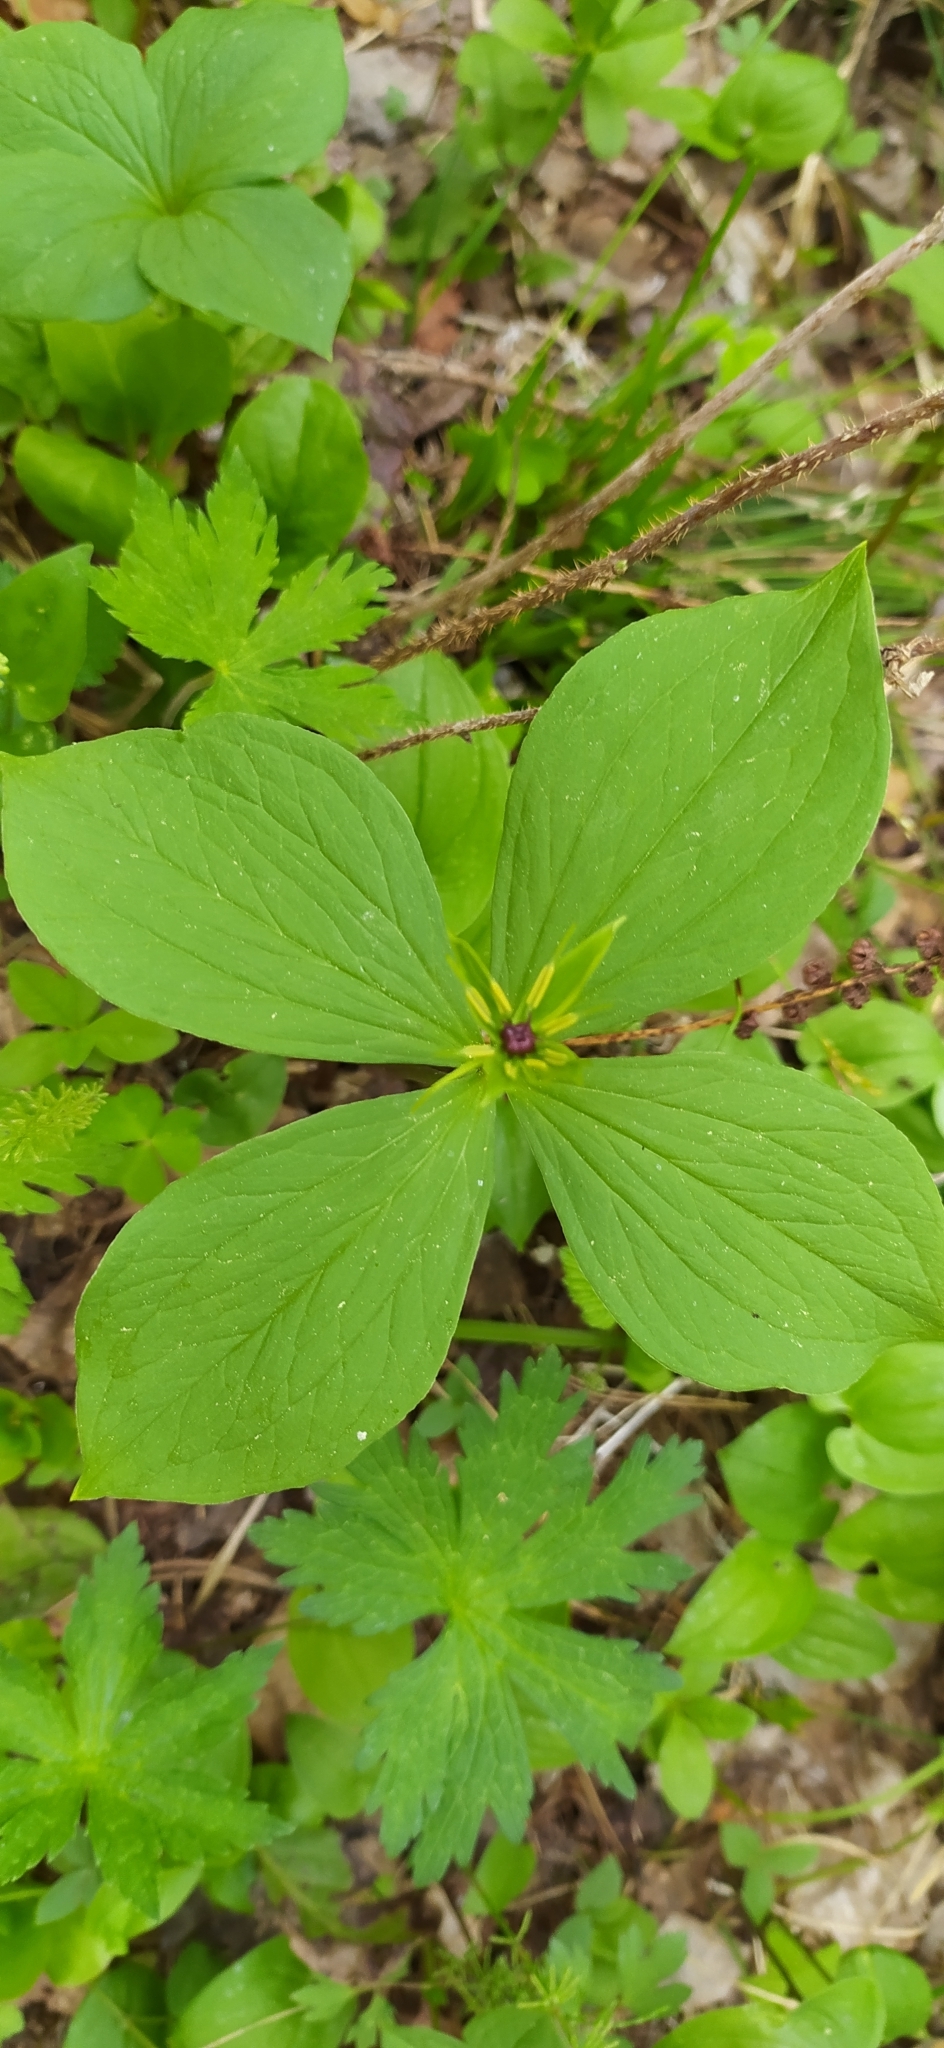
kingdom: Plantae
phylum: Tracheophyta
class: Liliopsida
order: Liliales
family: Melanthiaceae
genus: Paris
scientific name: Paris quadrifolia
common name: Herb-paris
